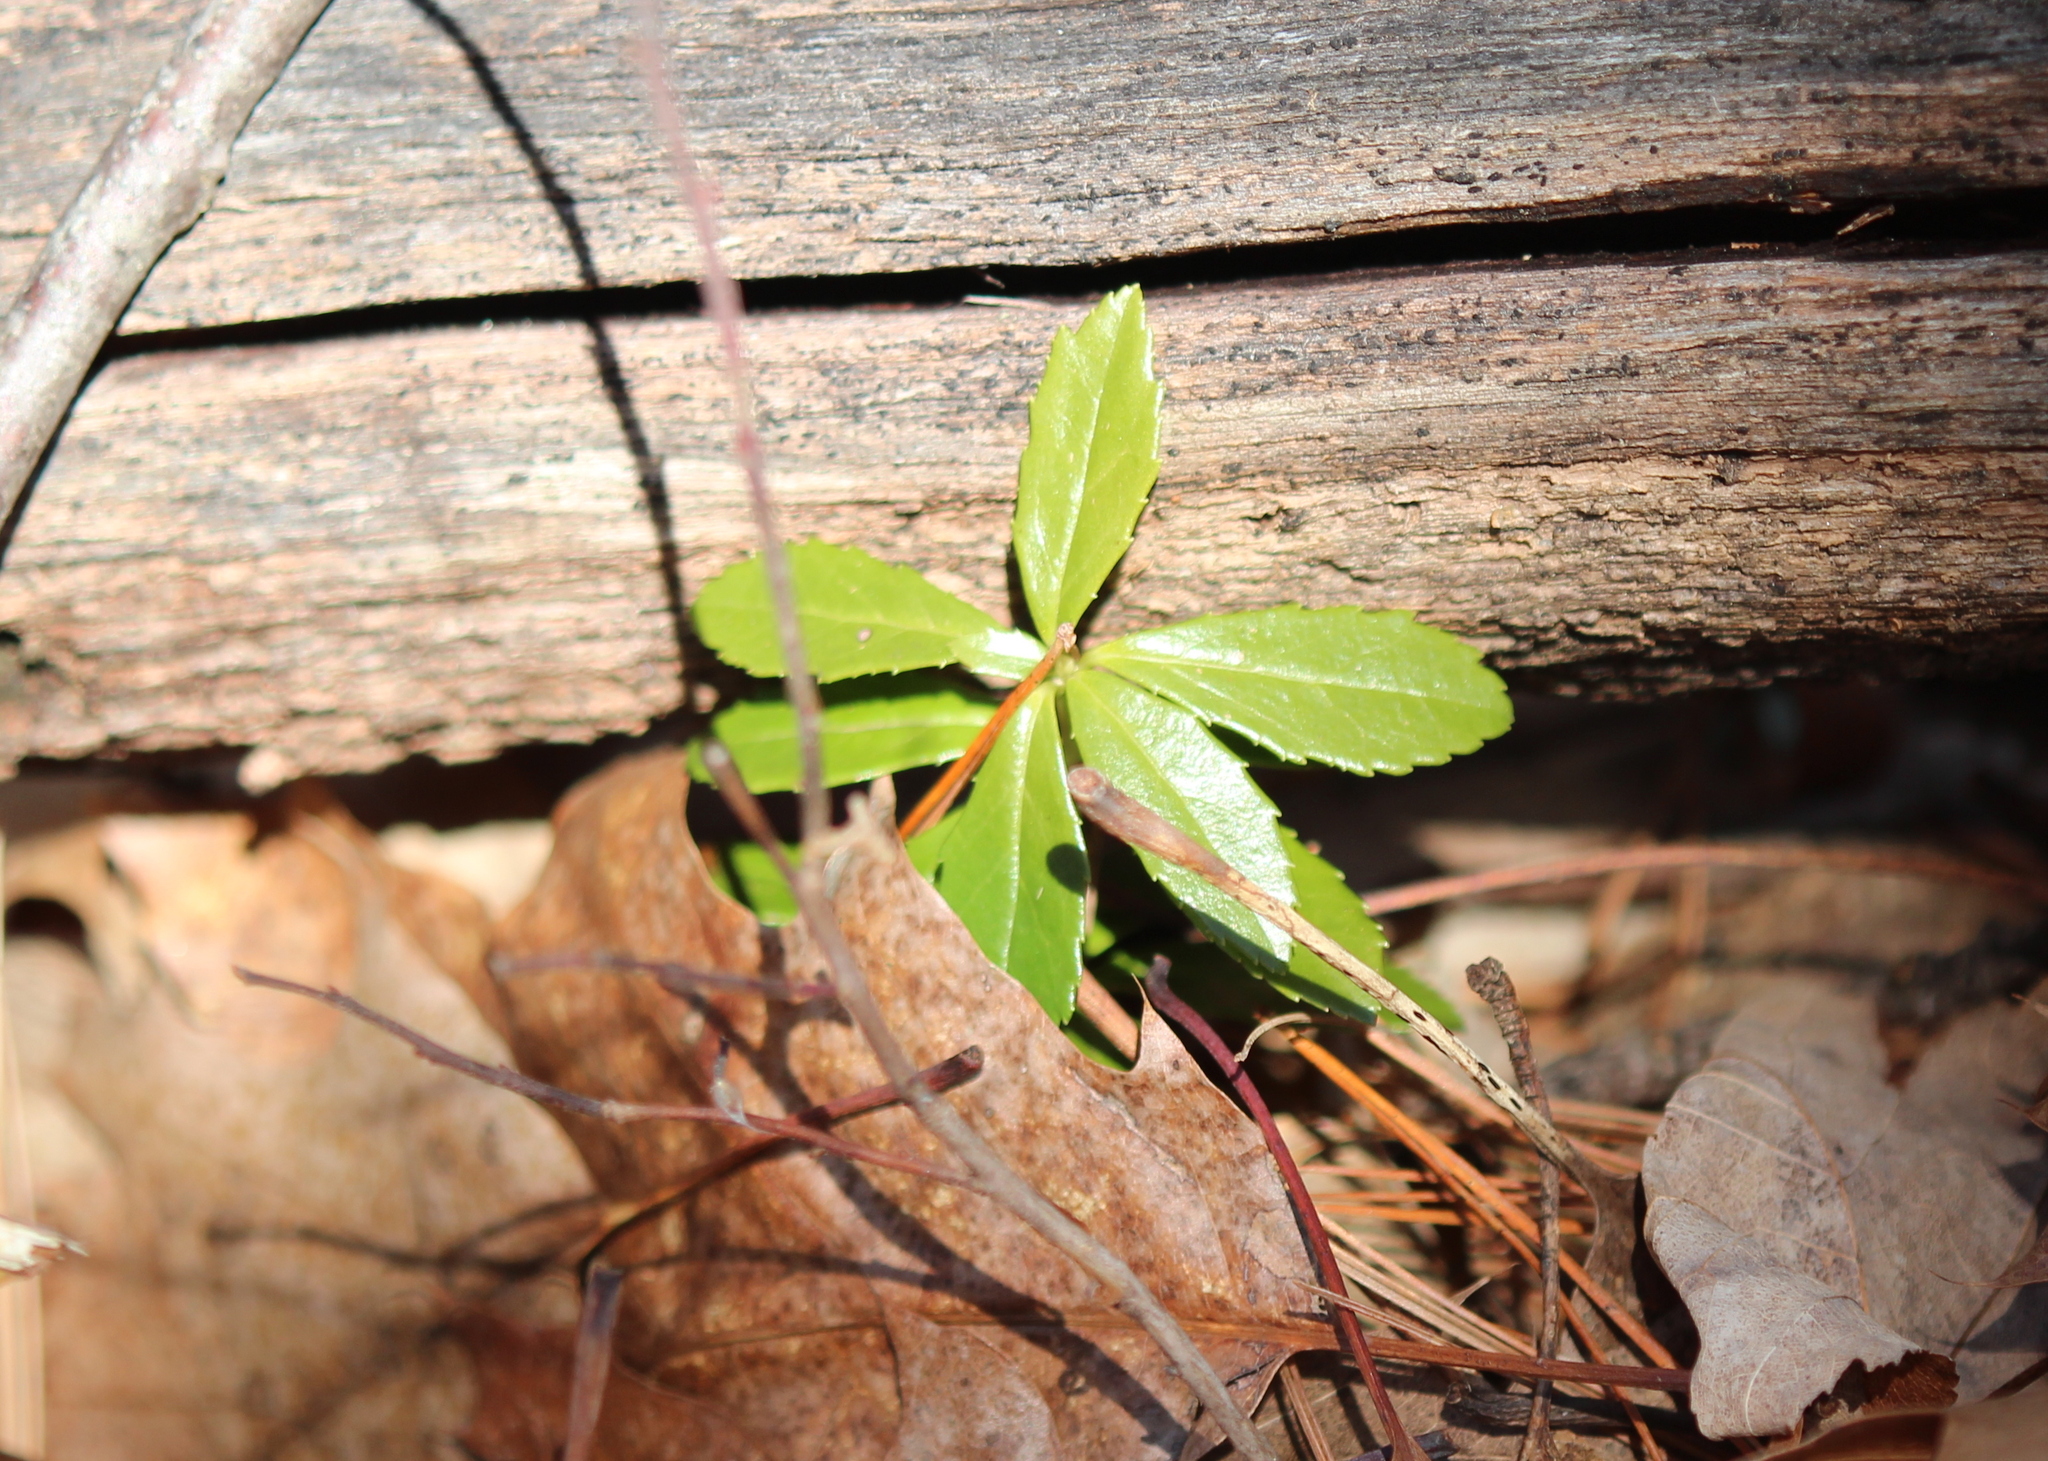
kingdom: Plantae
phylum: Tracheophyta
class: Magnoliopsida
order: Ericales
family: Ericaceae
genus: Chimaphila
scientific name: Chimaphila umbellata
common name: Pipsissewa
